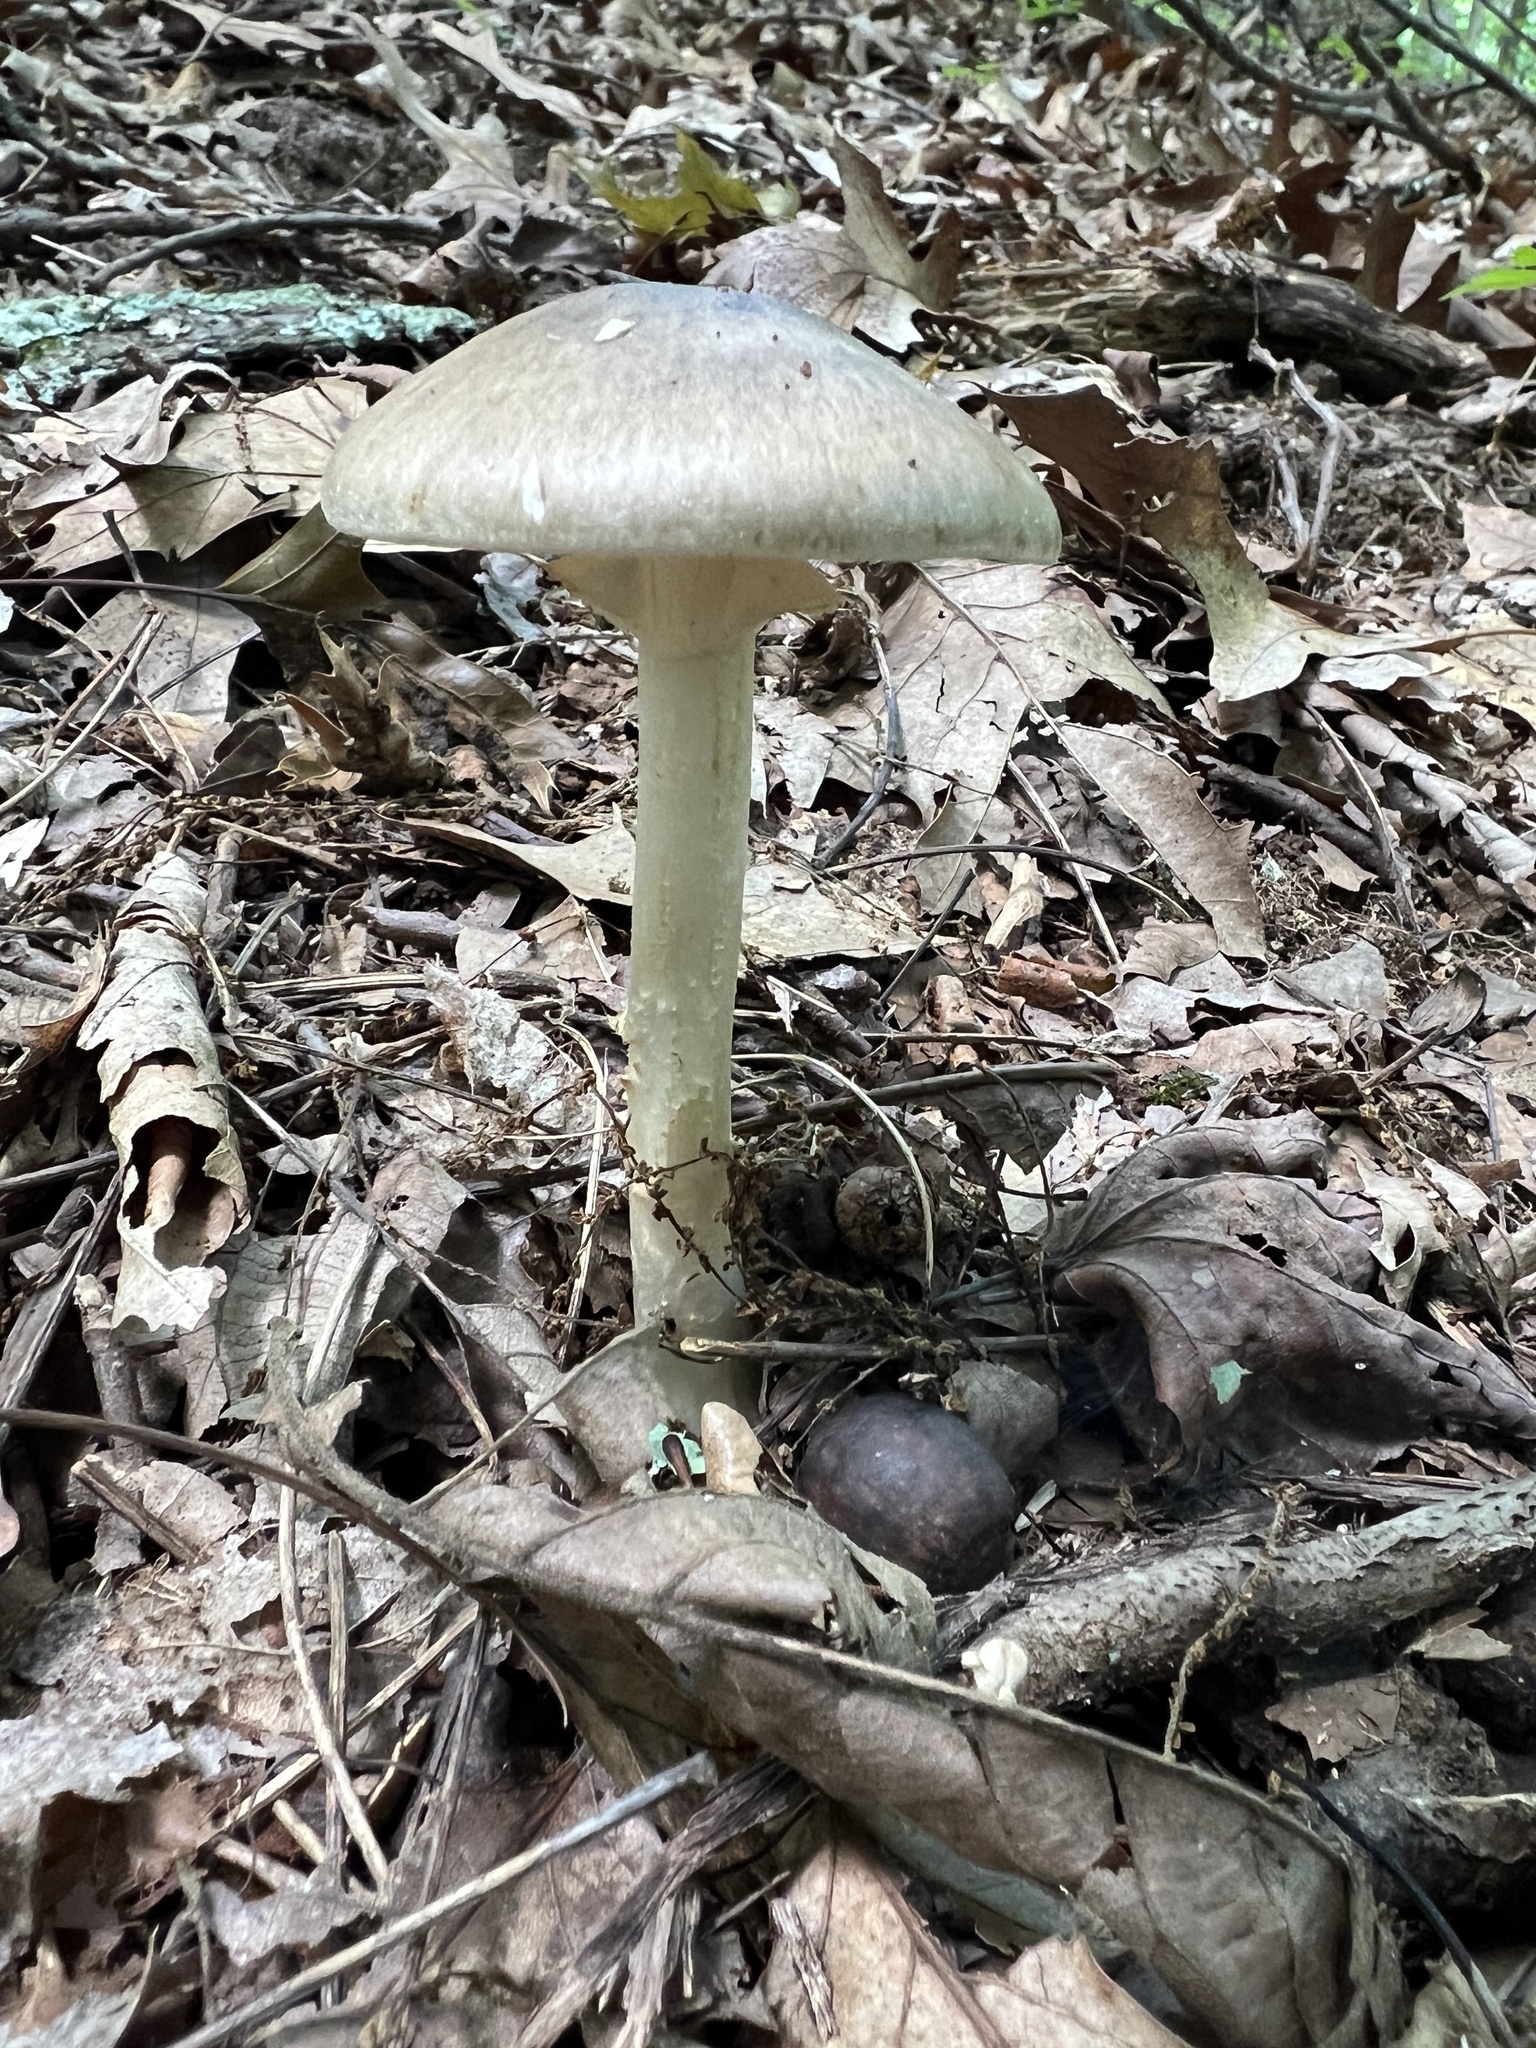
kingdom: Fungi
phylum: Basidiomycota
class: Agaricomycetes
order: Agaricales
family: Amanitaceae
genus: Amanita
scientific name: Amanita brunnescens
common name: Brown american star-footed amanita
